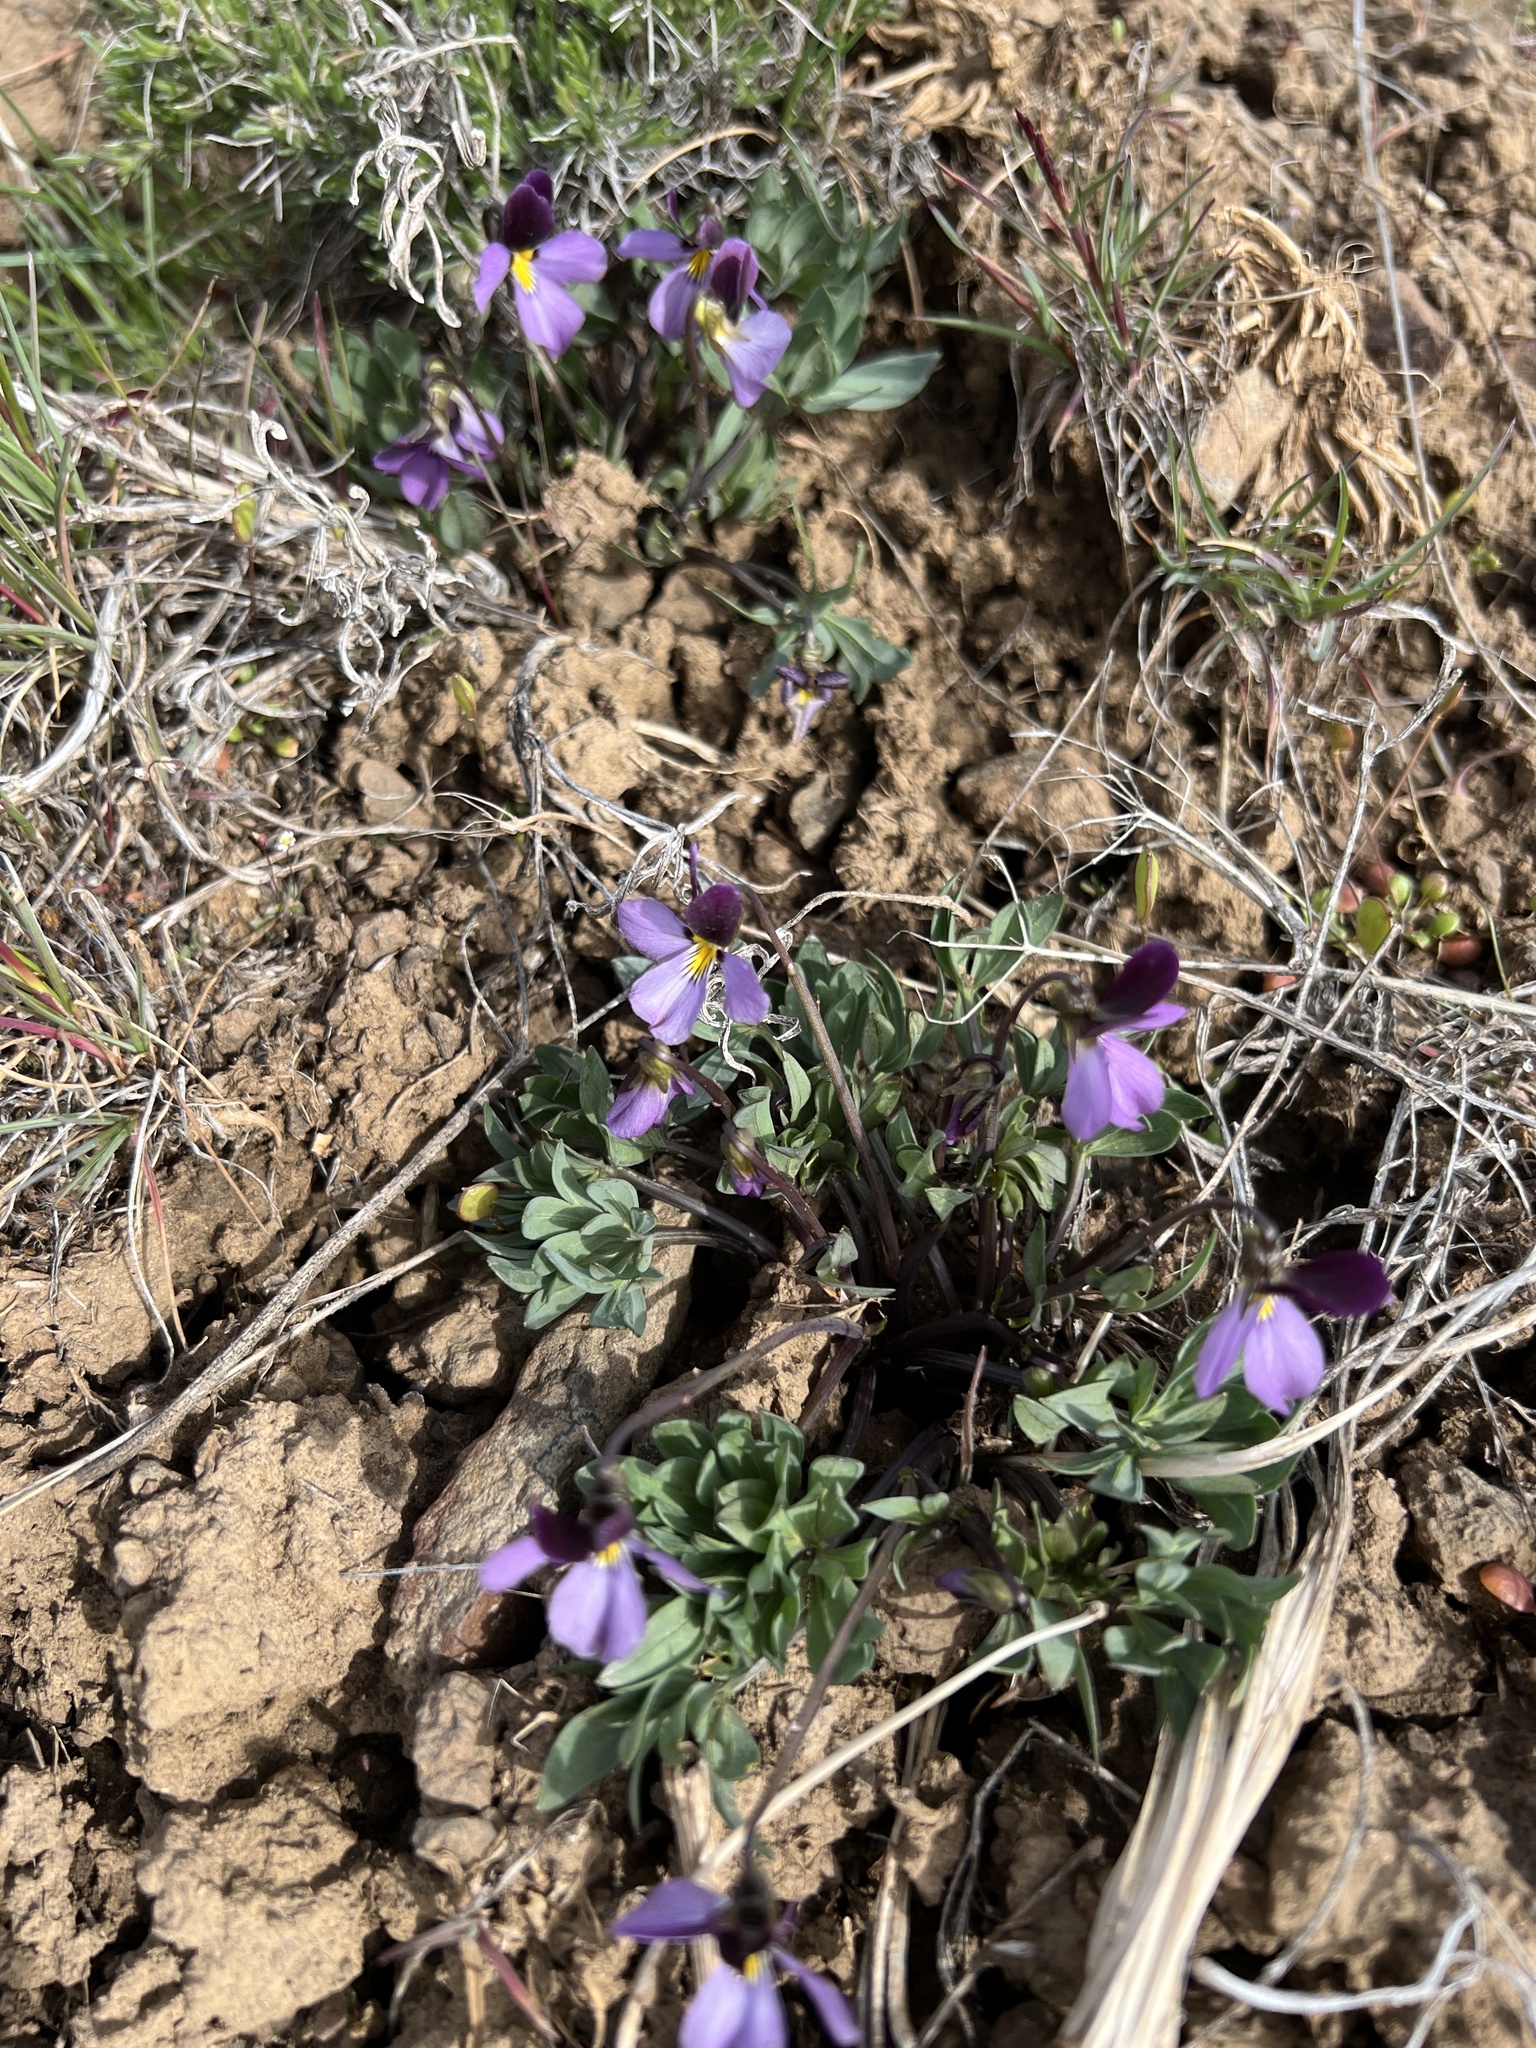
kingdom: Plantae
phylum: Tracheophyta
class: Magnoliopsida
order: Malpighiales
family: Violaceae
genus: Viola
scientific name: Viola trinervata
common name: Sagebrush violet
